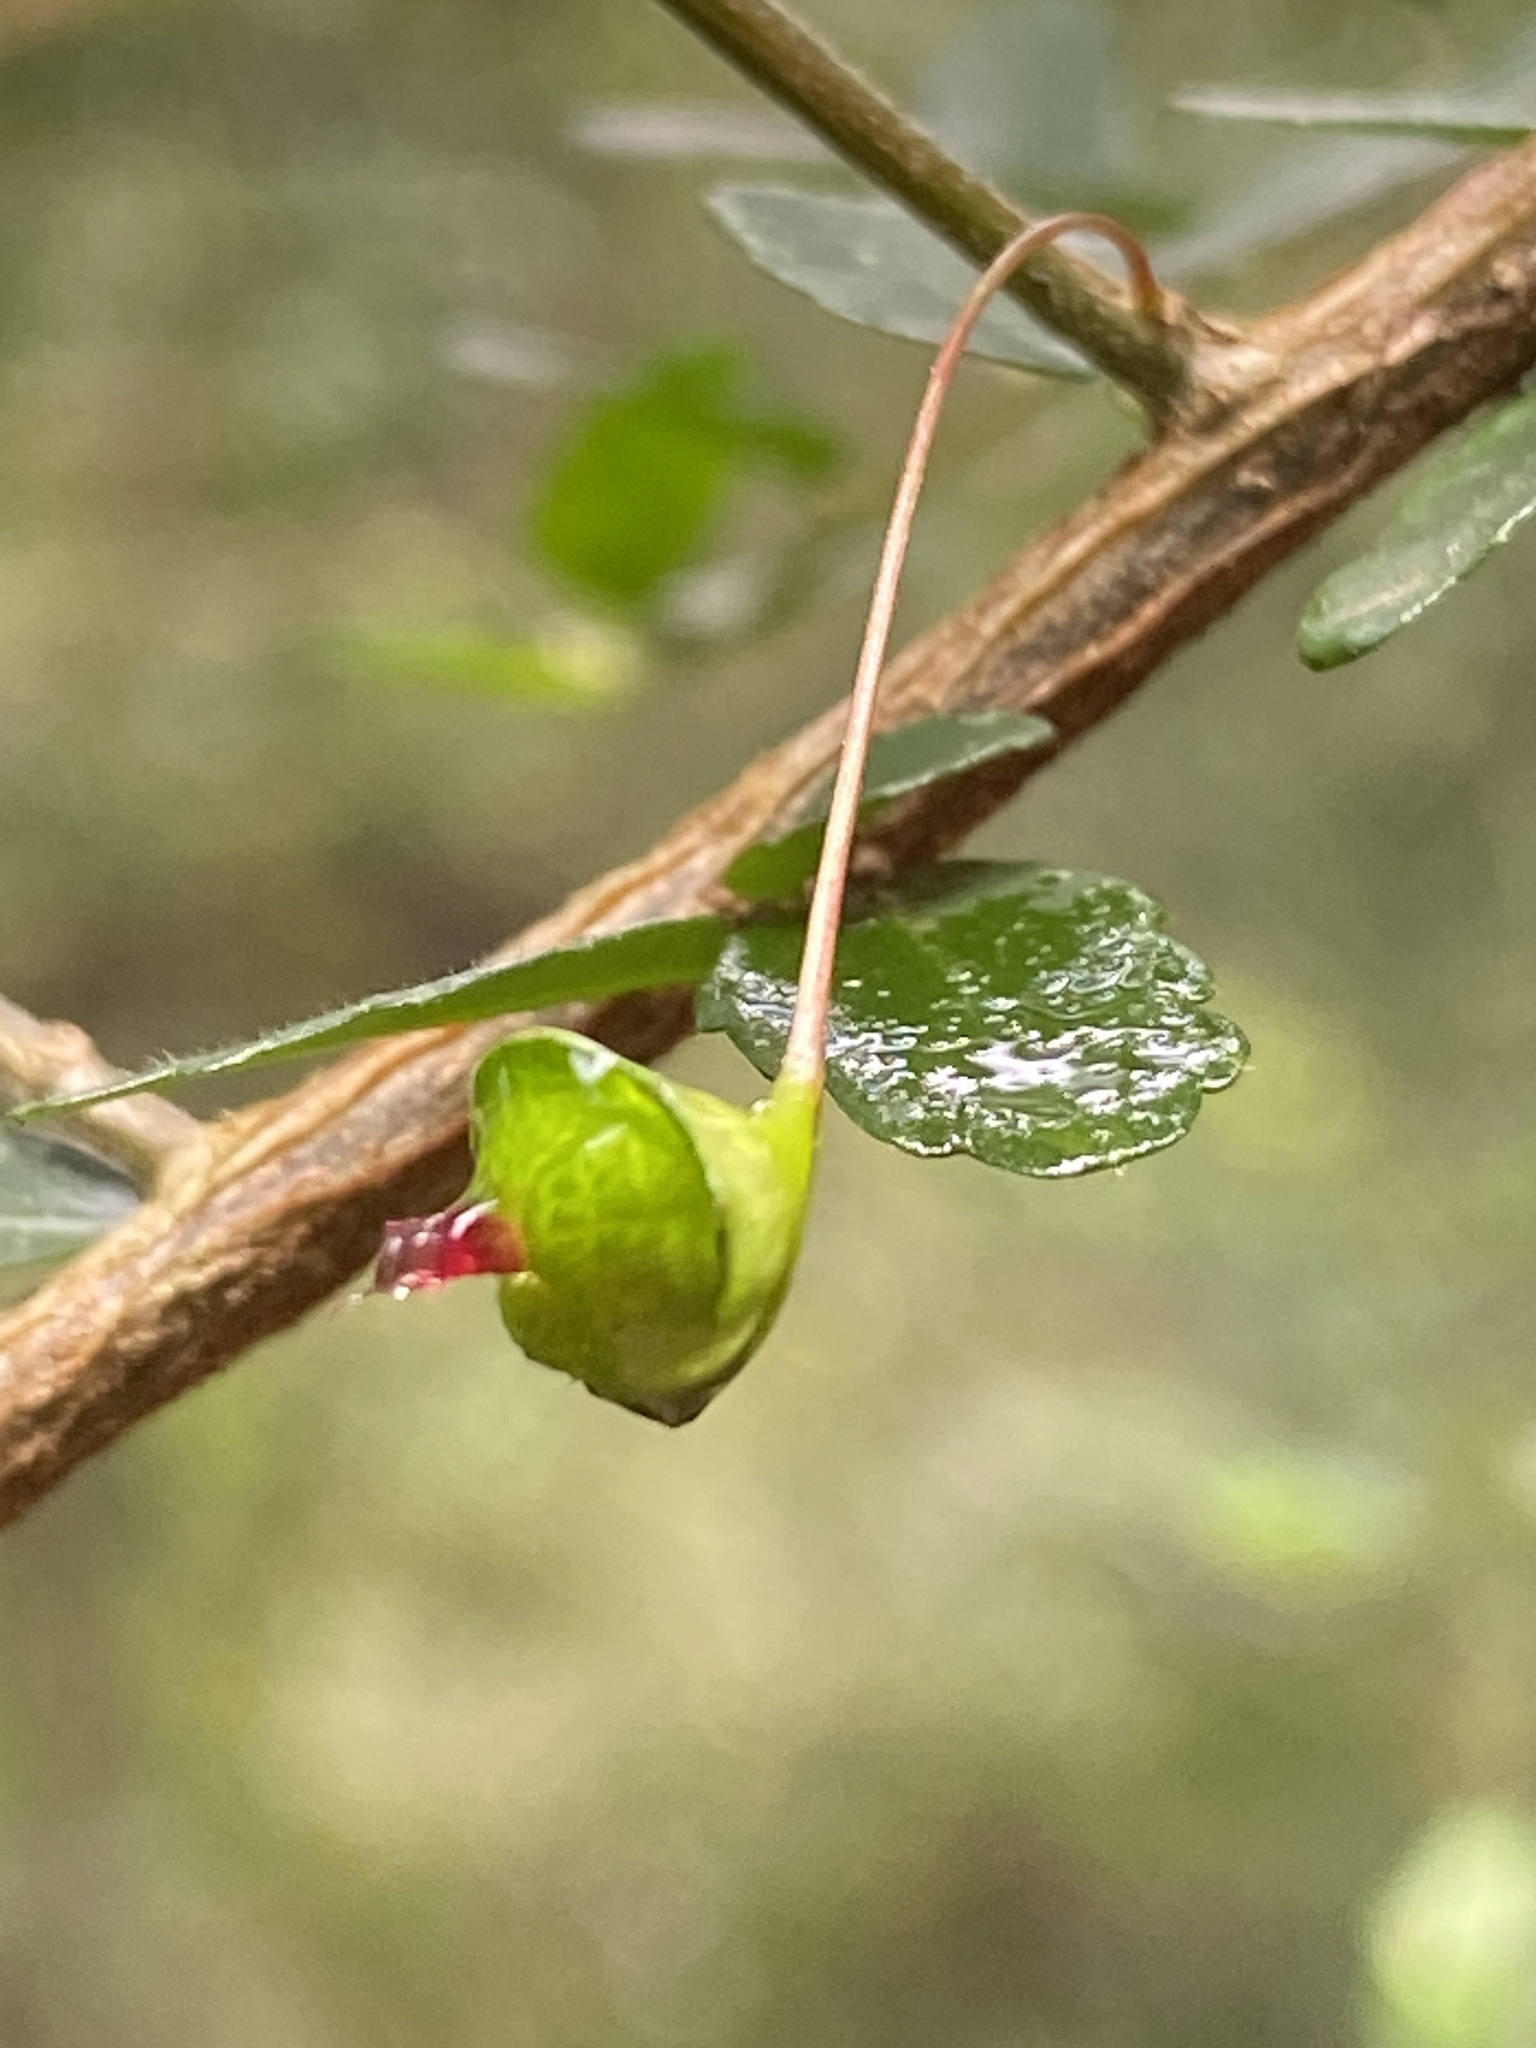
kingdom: Plantae
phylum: Tracheophyta
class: Magnoliopsida
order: Malpighiales
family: Euphorbiaceae
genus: Acalypha
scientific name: Acalypha capillipes
